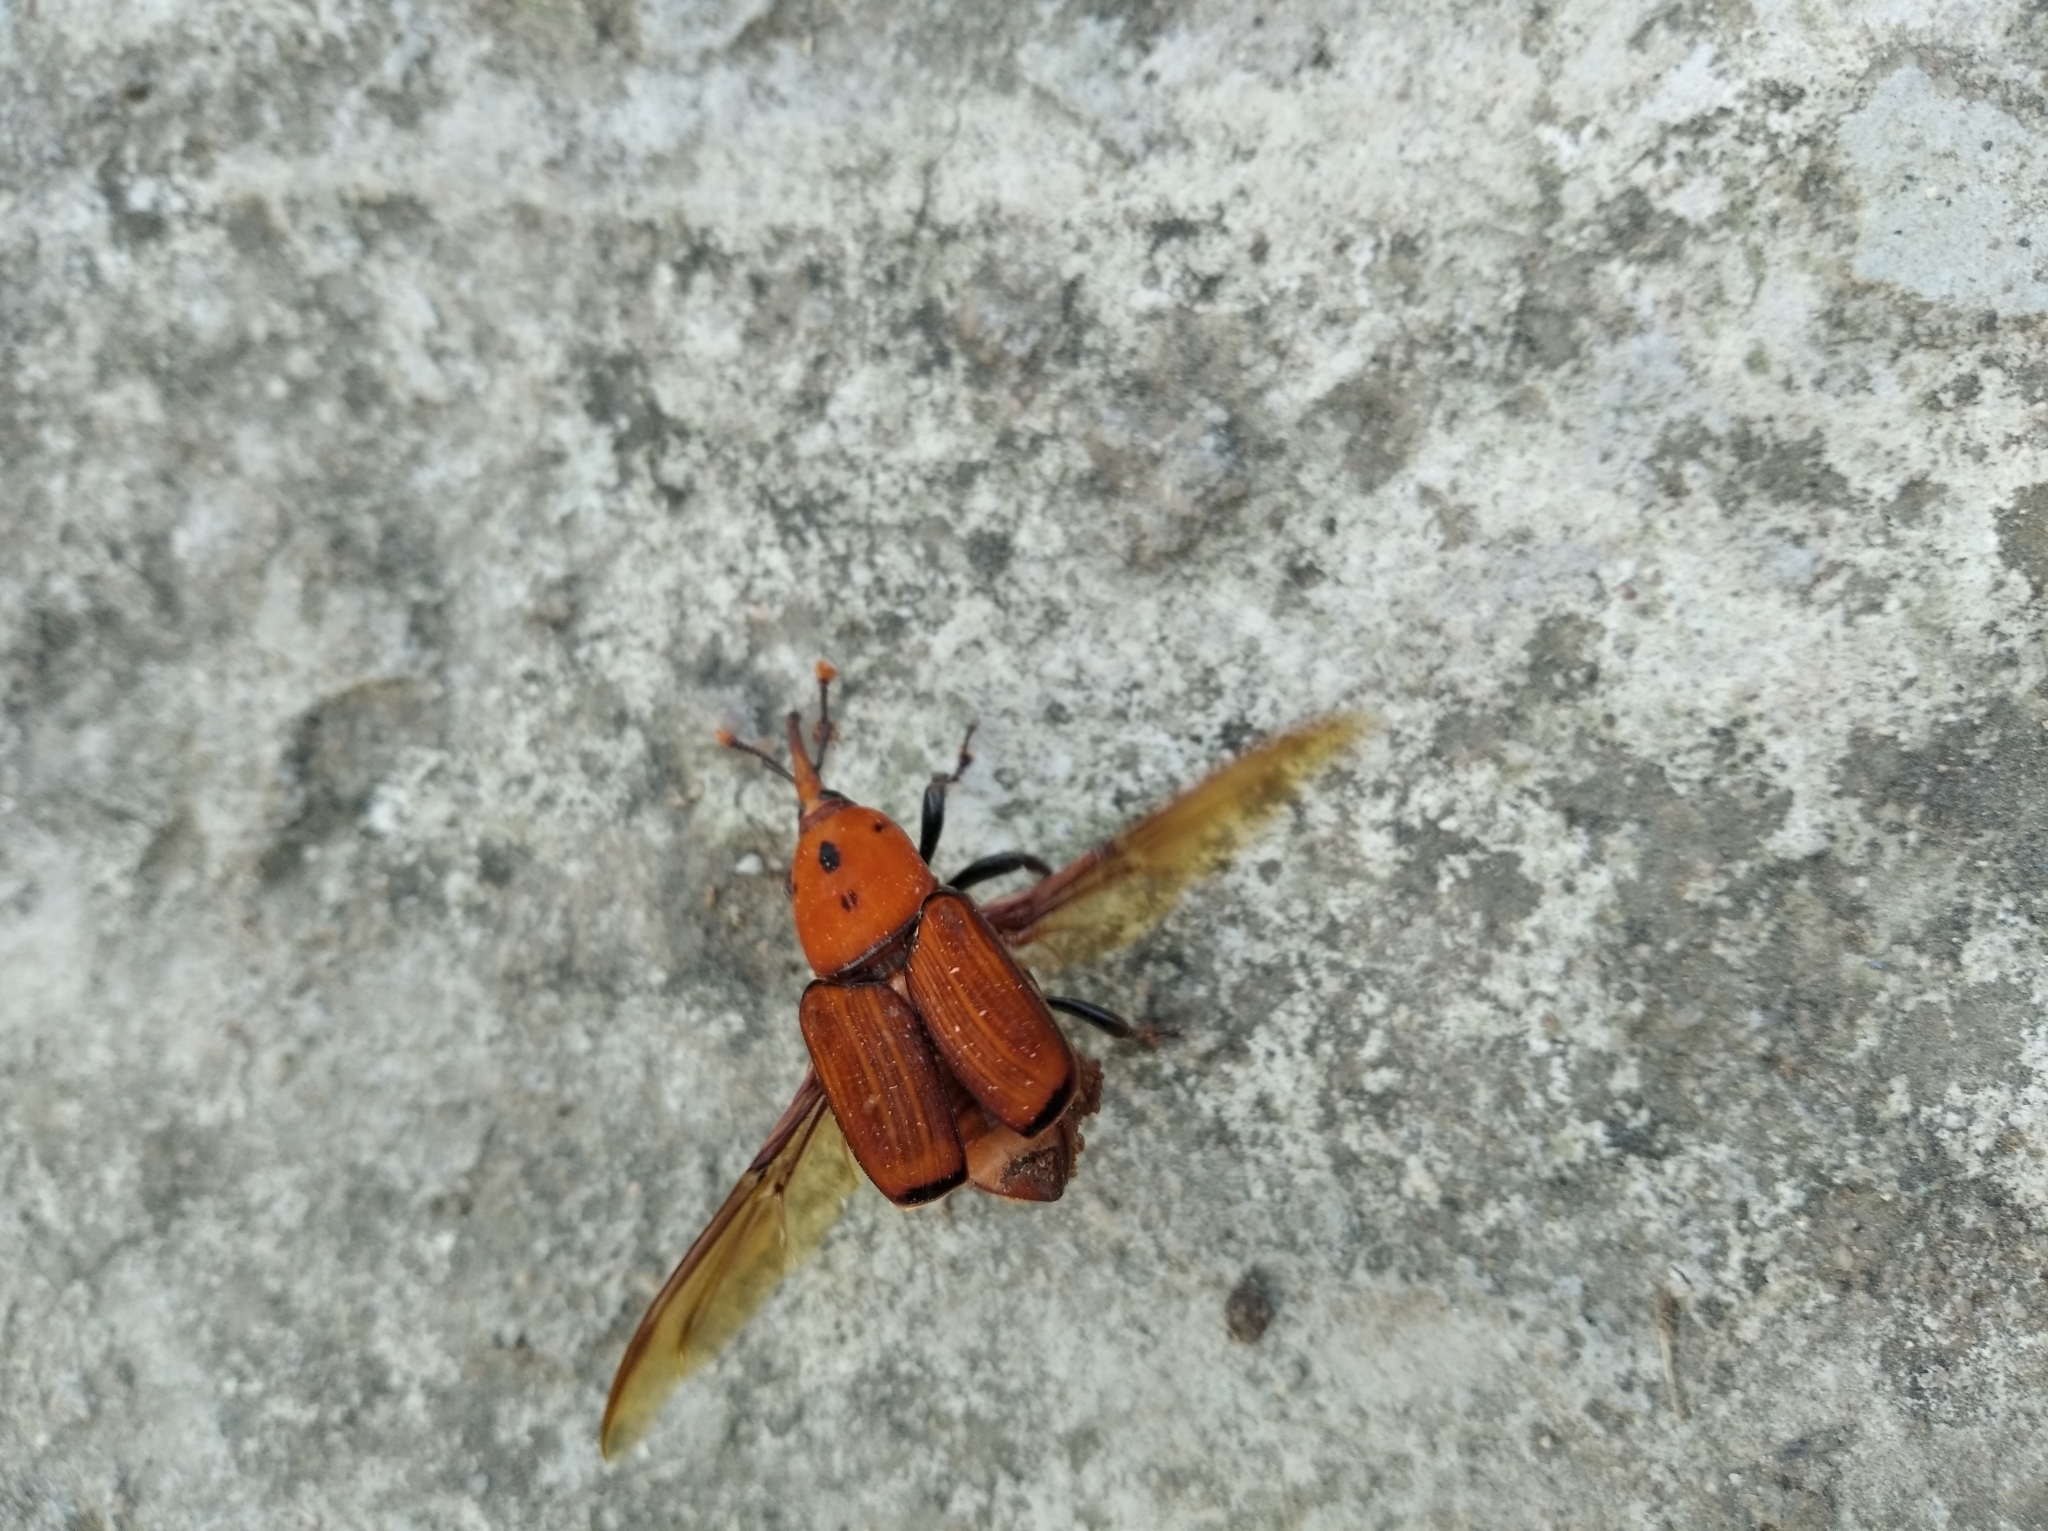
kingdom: Animalia
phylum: Arthropoda
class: Insecta
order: Coleoptera
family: Dryophthoridae
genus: Rhynchophorus
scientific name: Rhynchophorus ferrugineus
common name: Red palm weevil
